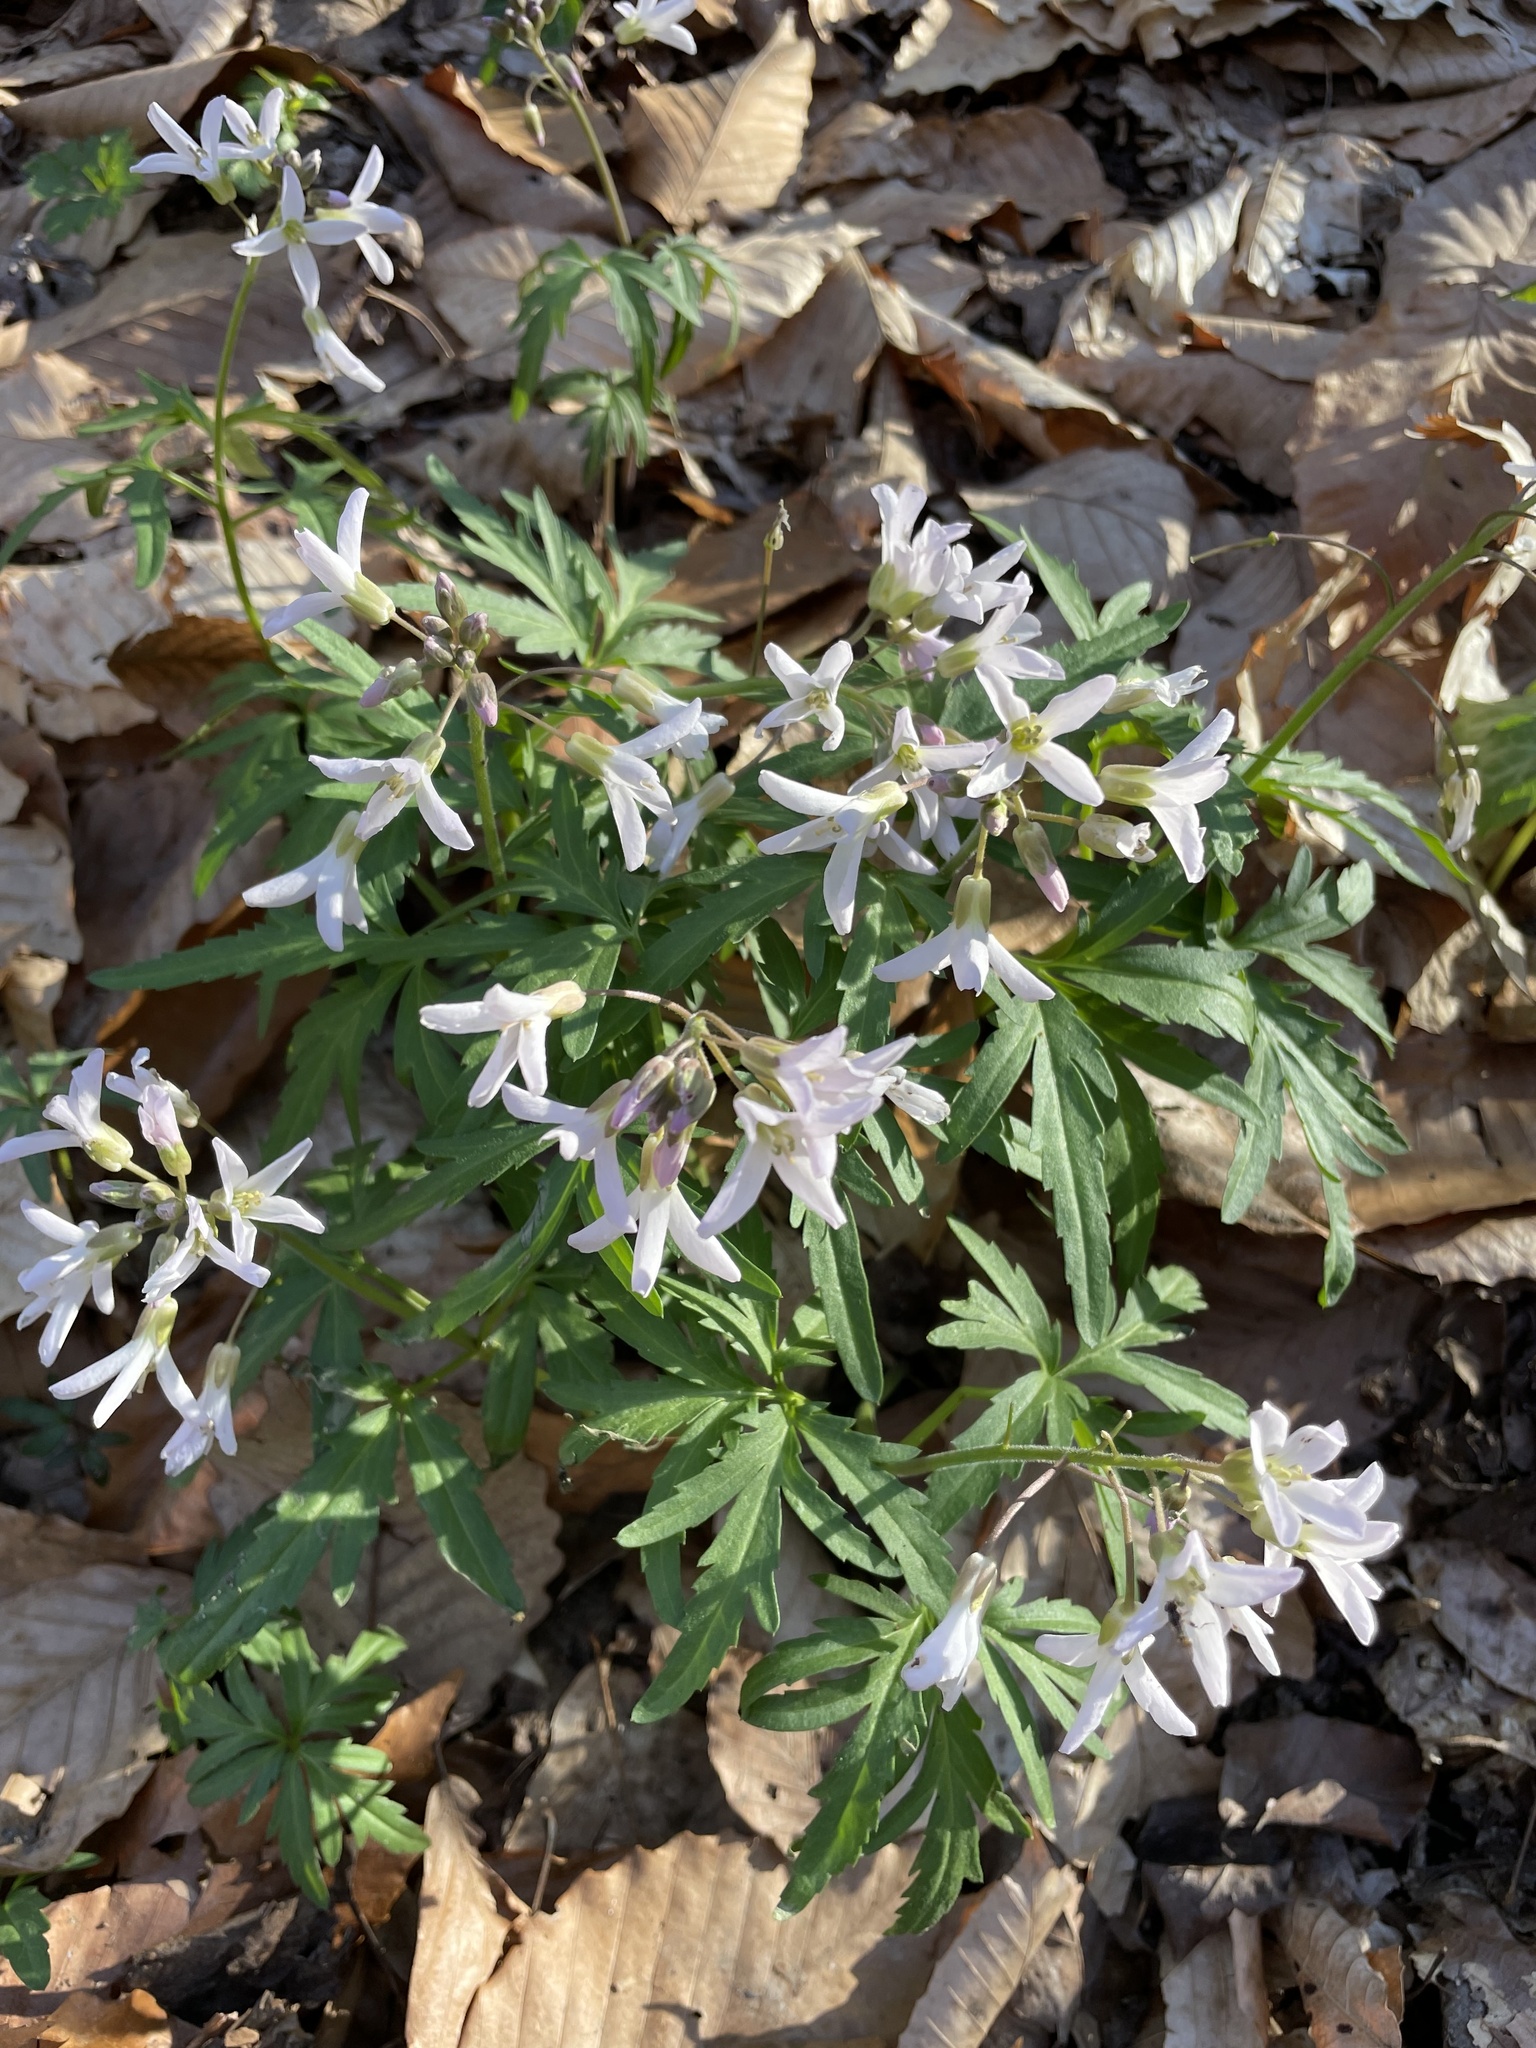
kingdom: Plantae
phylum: Tracheophyta
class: Magnoliopsida
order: Brassicales
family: Brassicaceae
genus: Cardamine
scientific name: Cardamine concatenata
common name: Cut-leaf toothcup
